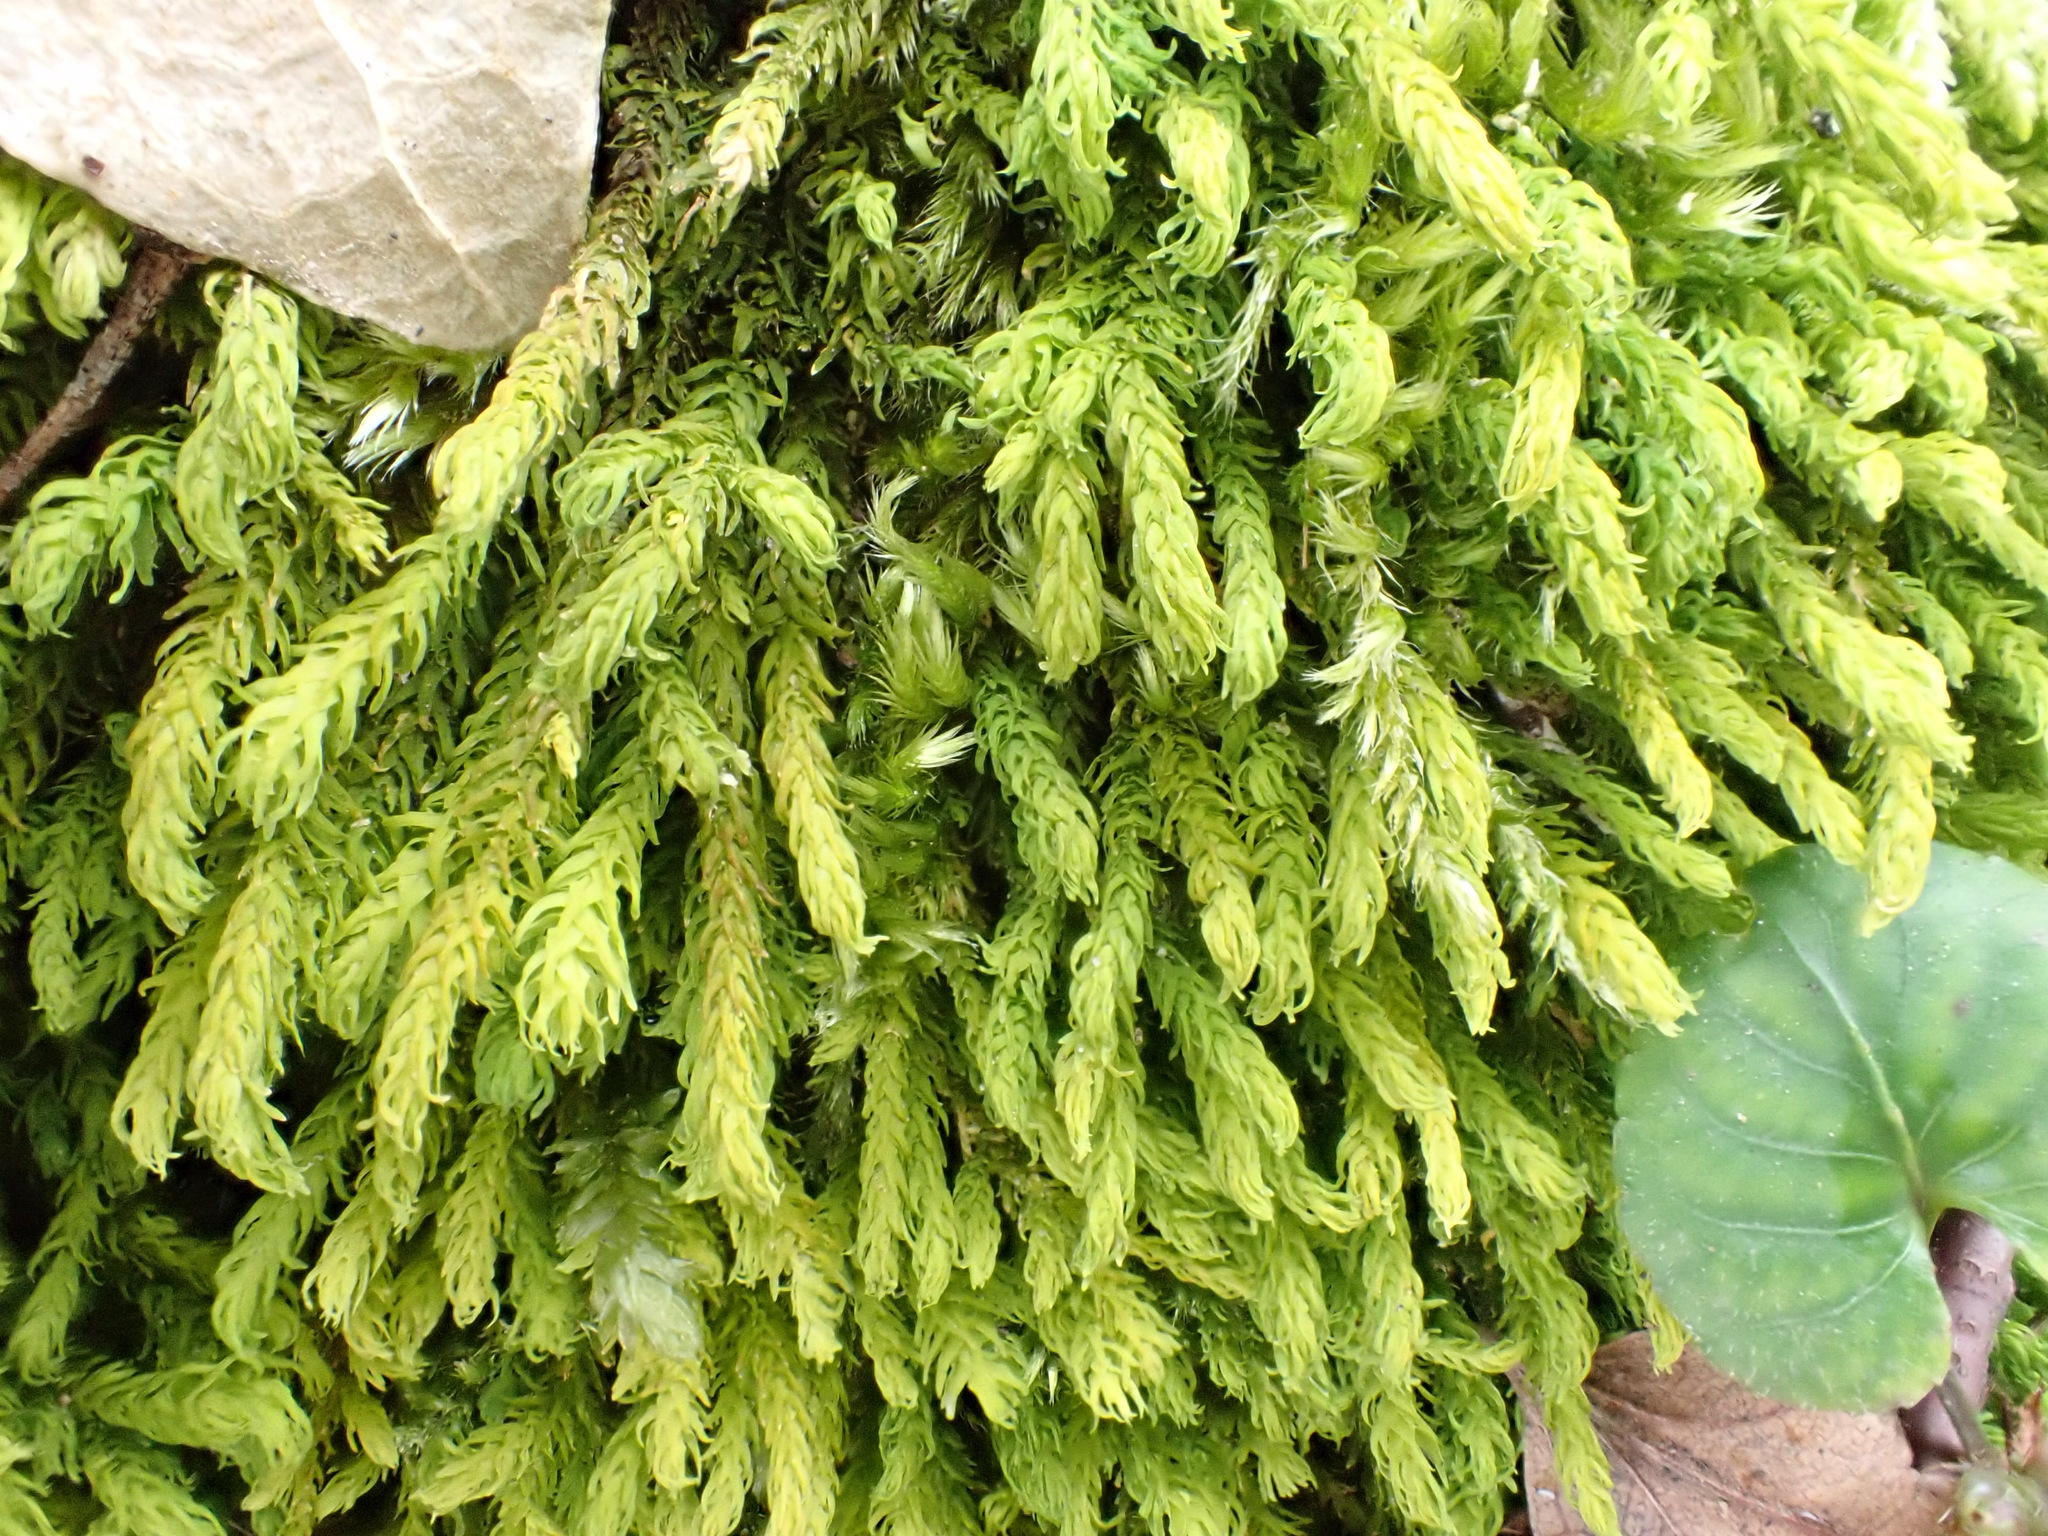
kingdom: Plantae
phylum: Bryophyta
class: Bryopsida
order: Hypnales
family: Anomodontaceae
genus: Anomodon
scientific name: Anomodon viticulosus
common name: Tall anomodon
